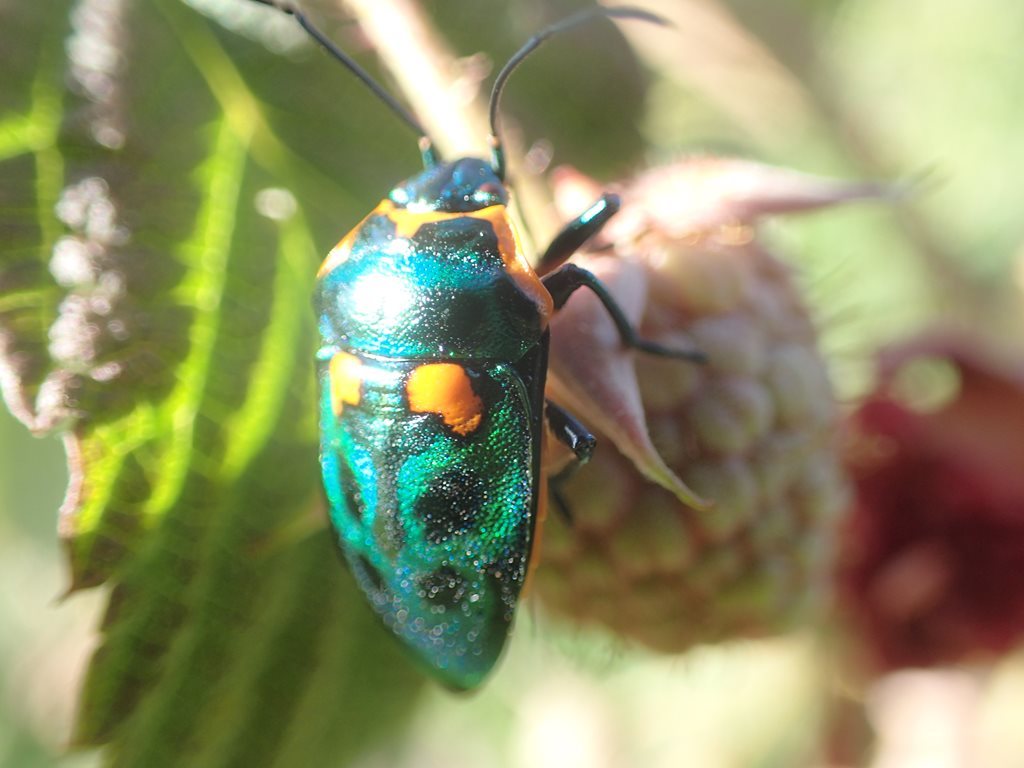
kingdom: Animalia
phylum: Arthropoda
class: Insecta
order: Hemiptera
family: Scutelleridae
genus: Scutiphora
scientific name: Scutiphora pedicellata
